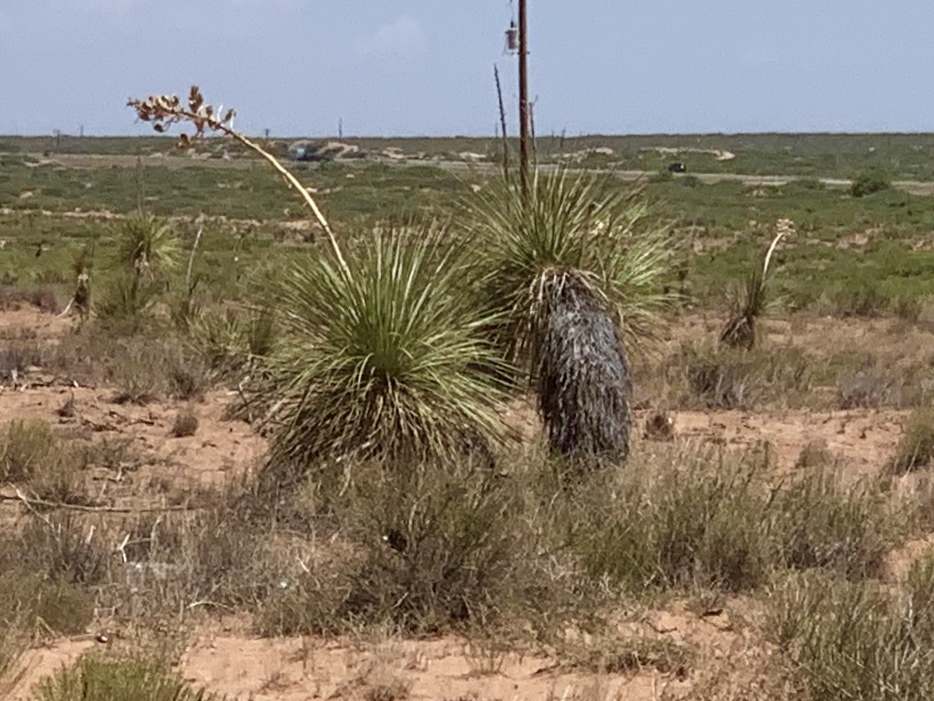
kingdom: Plantae
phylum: Tracheophyta
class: Liliopsida
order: Asparagales
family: Asparagaceae
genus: Yucca
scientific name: Yucca elata
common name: Palmella
